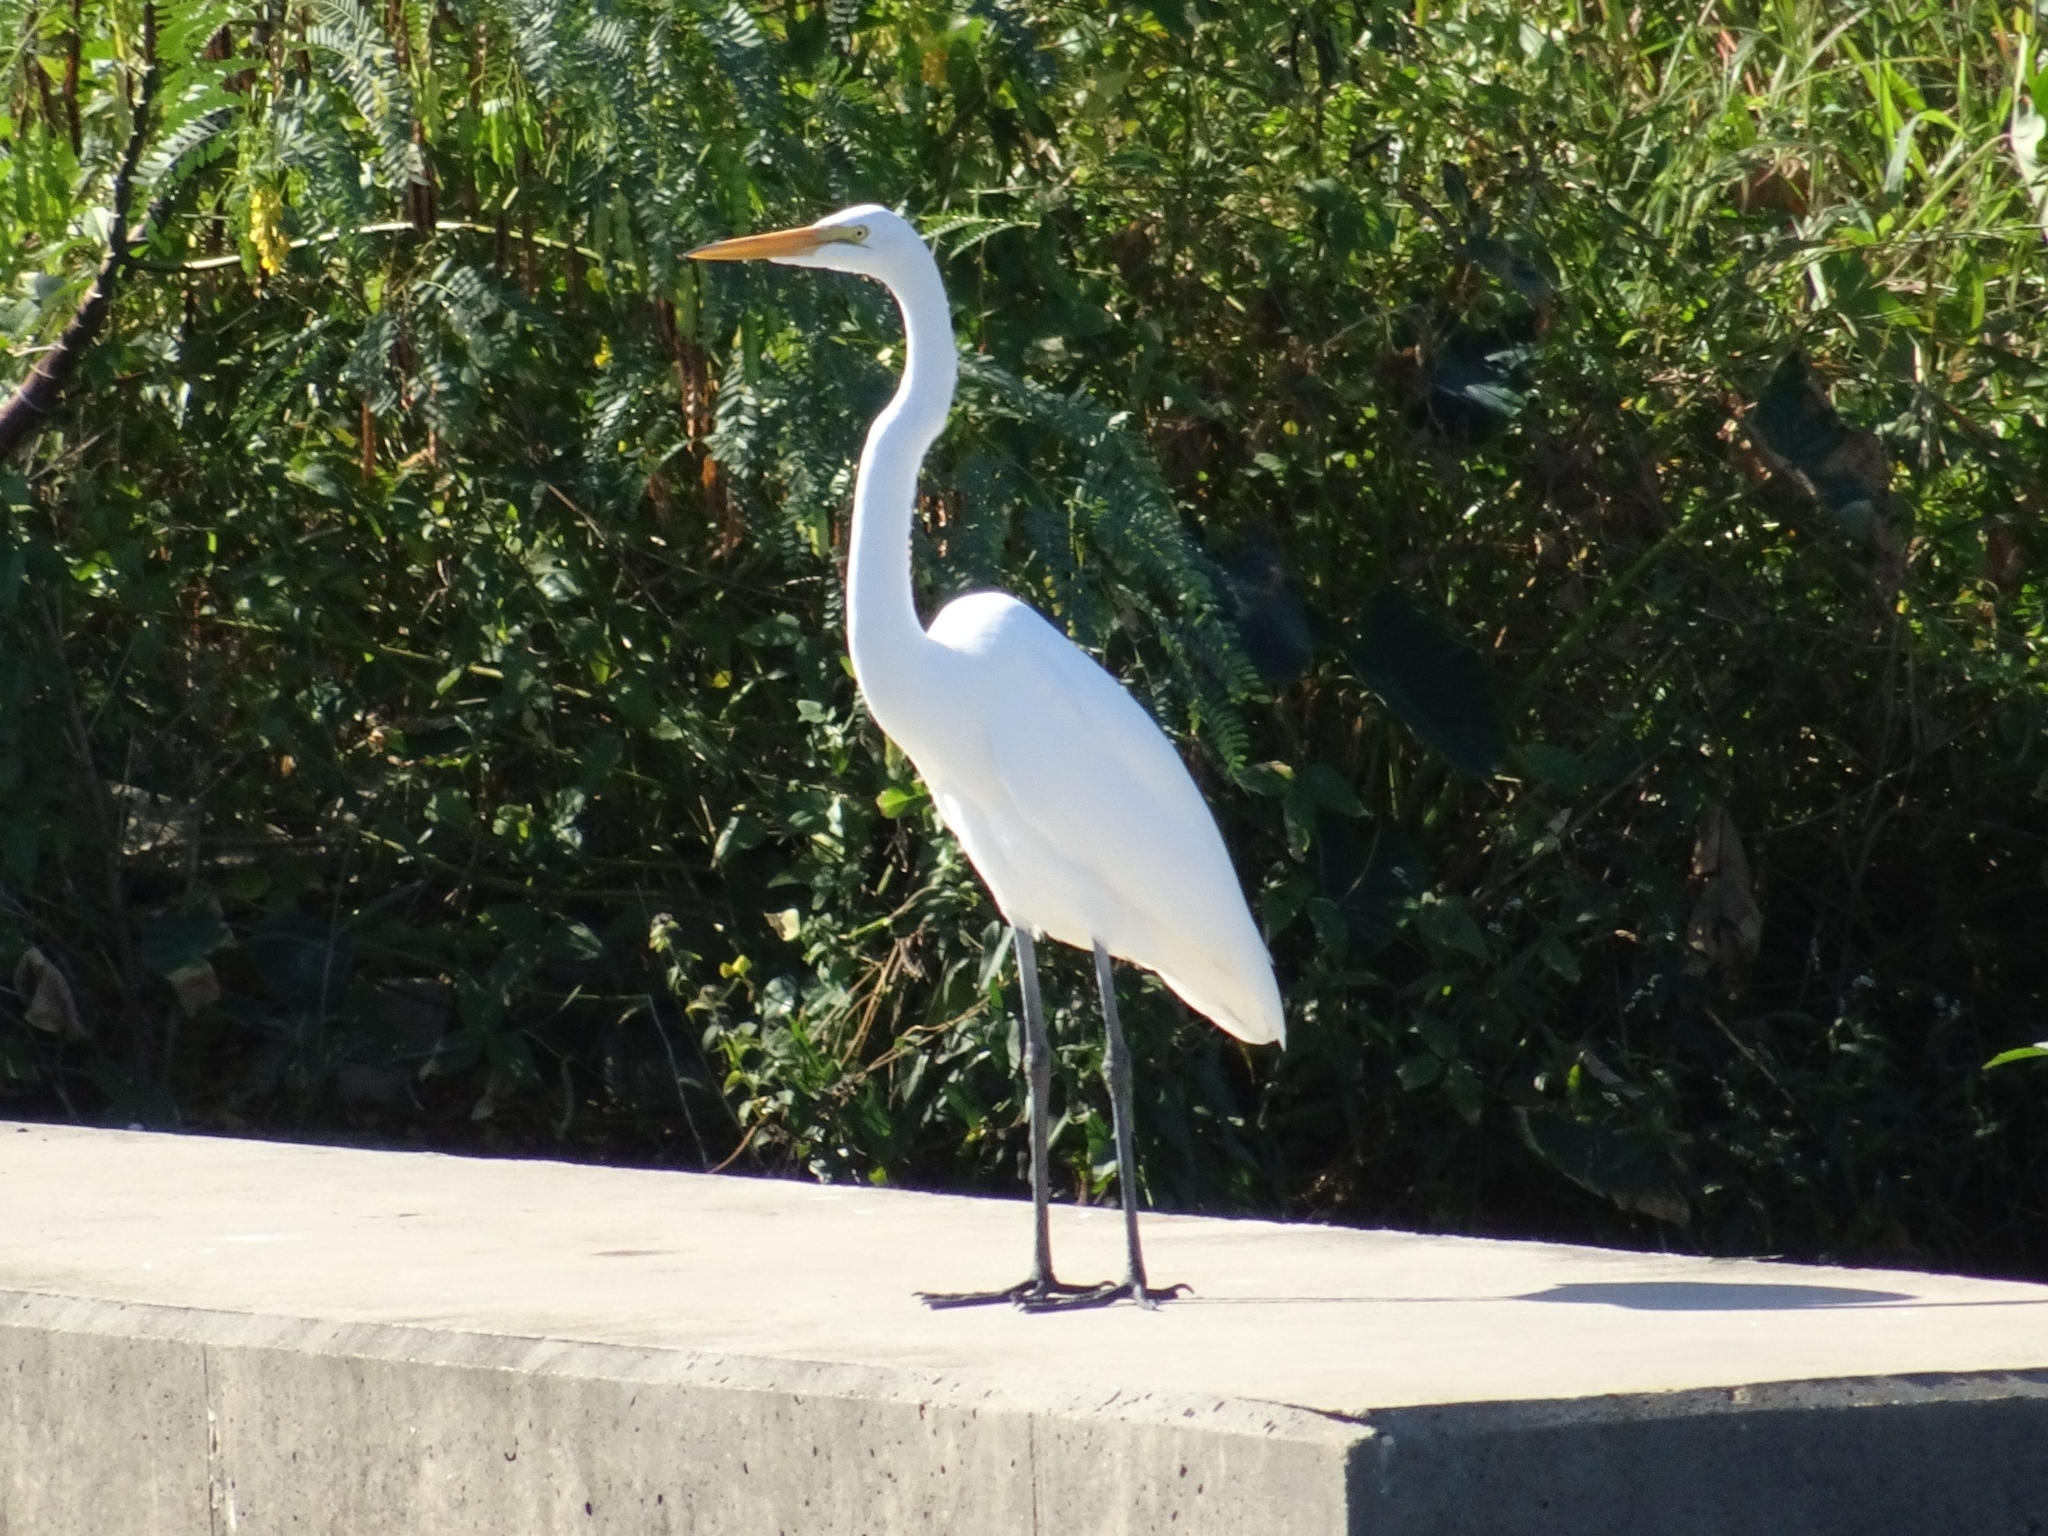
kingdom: Animalia
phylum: Chordata
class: Aves
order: Pelecaniformes
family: Ardeidae
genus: Ardea
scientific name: Ardea alba
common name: Great egret
